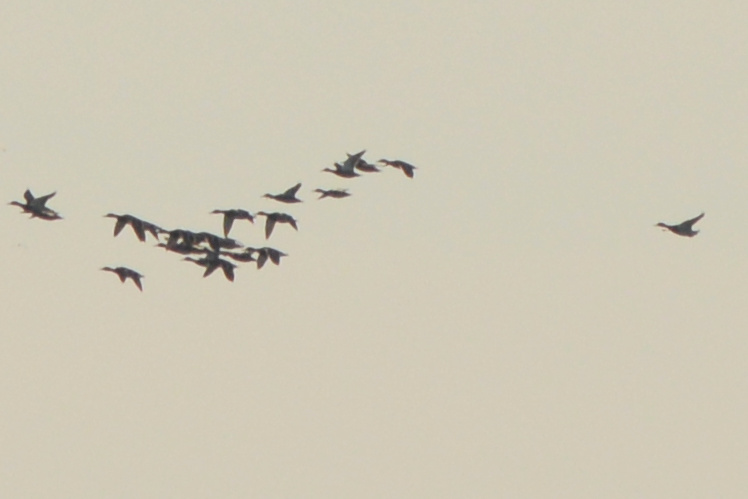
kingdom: Animalia
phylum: Chordata
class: Aves
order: Anseriformes
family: Anatidae
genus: Spatula
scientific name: Spatula clypeata
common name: Northern shoveler
